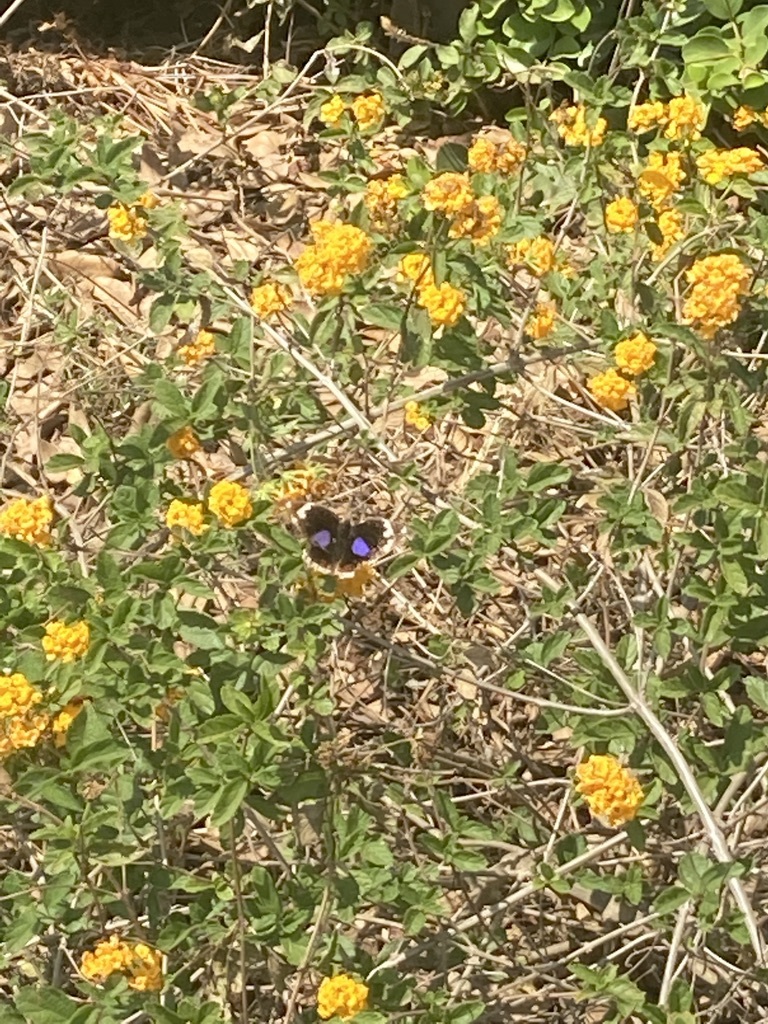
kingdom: Animalia
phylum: Arthropoda
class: Insecta
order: Lepidoptera
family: Nymphalidae
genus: Junonia
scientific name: Junonia oenone
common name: Dark blue pansy
